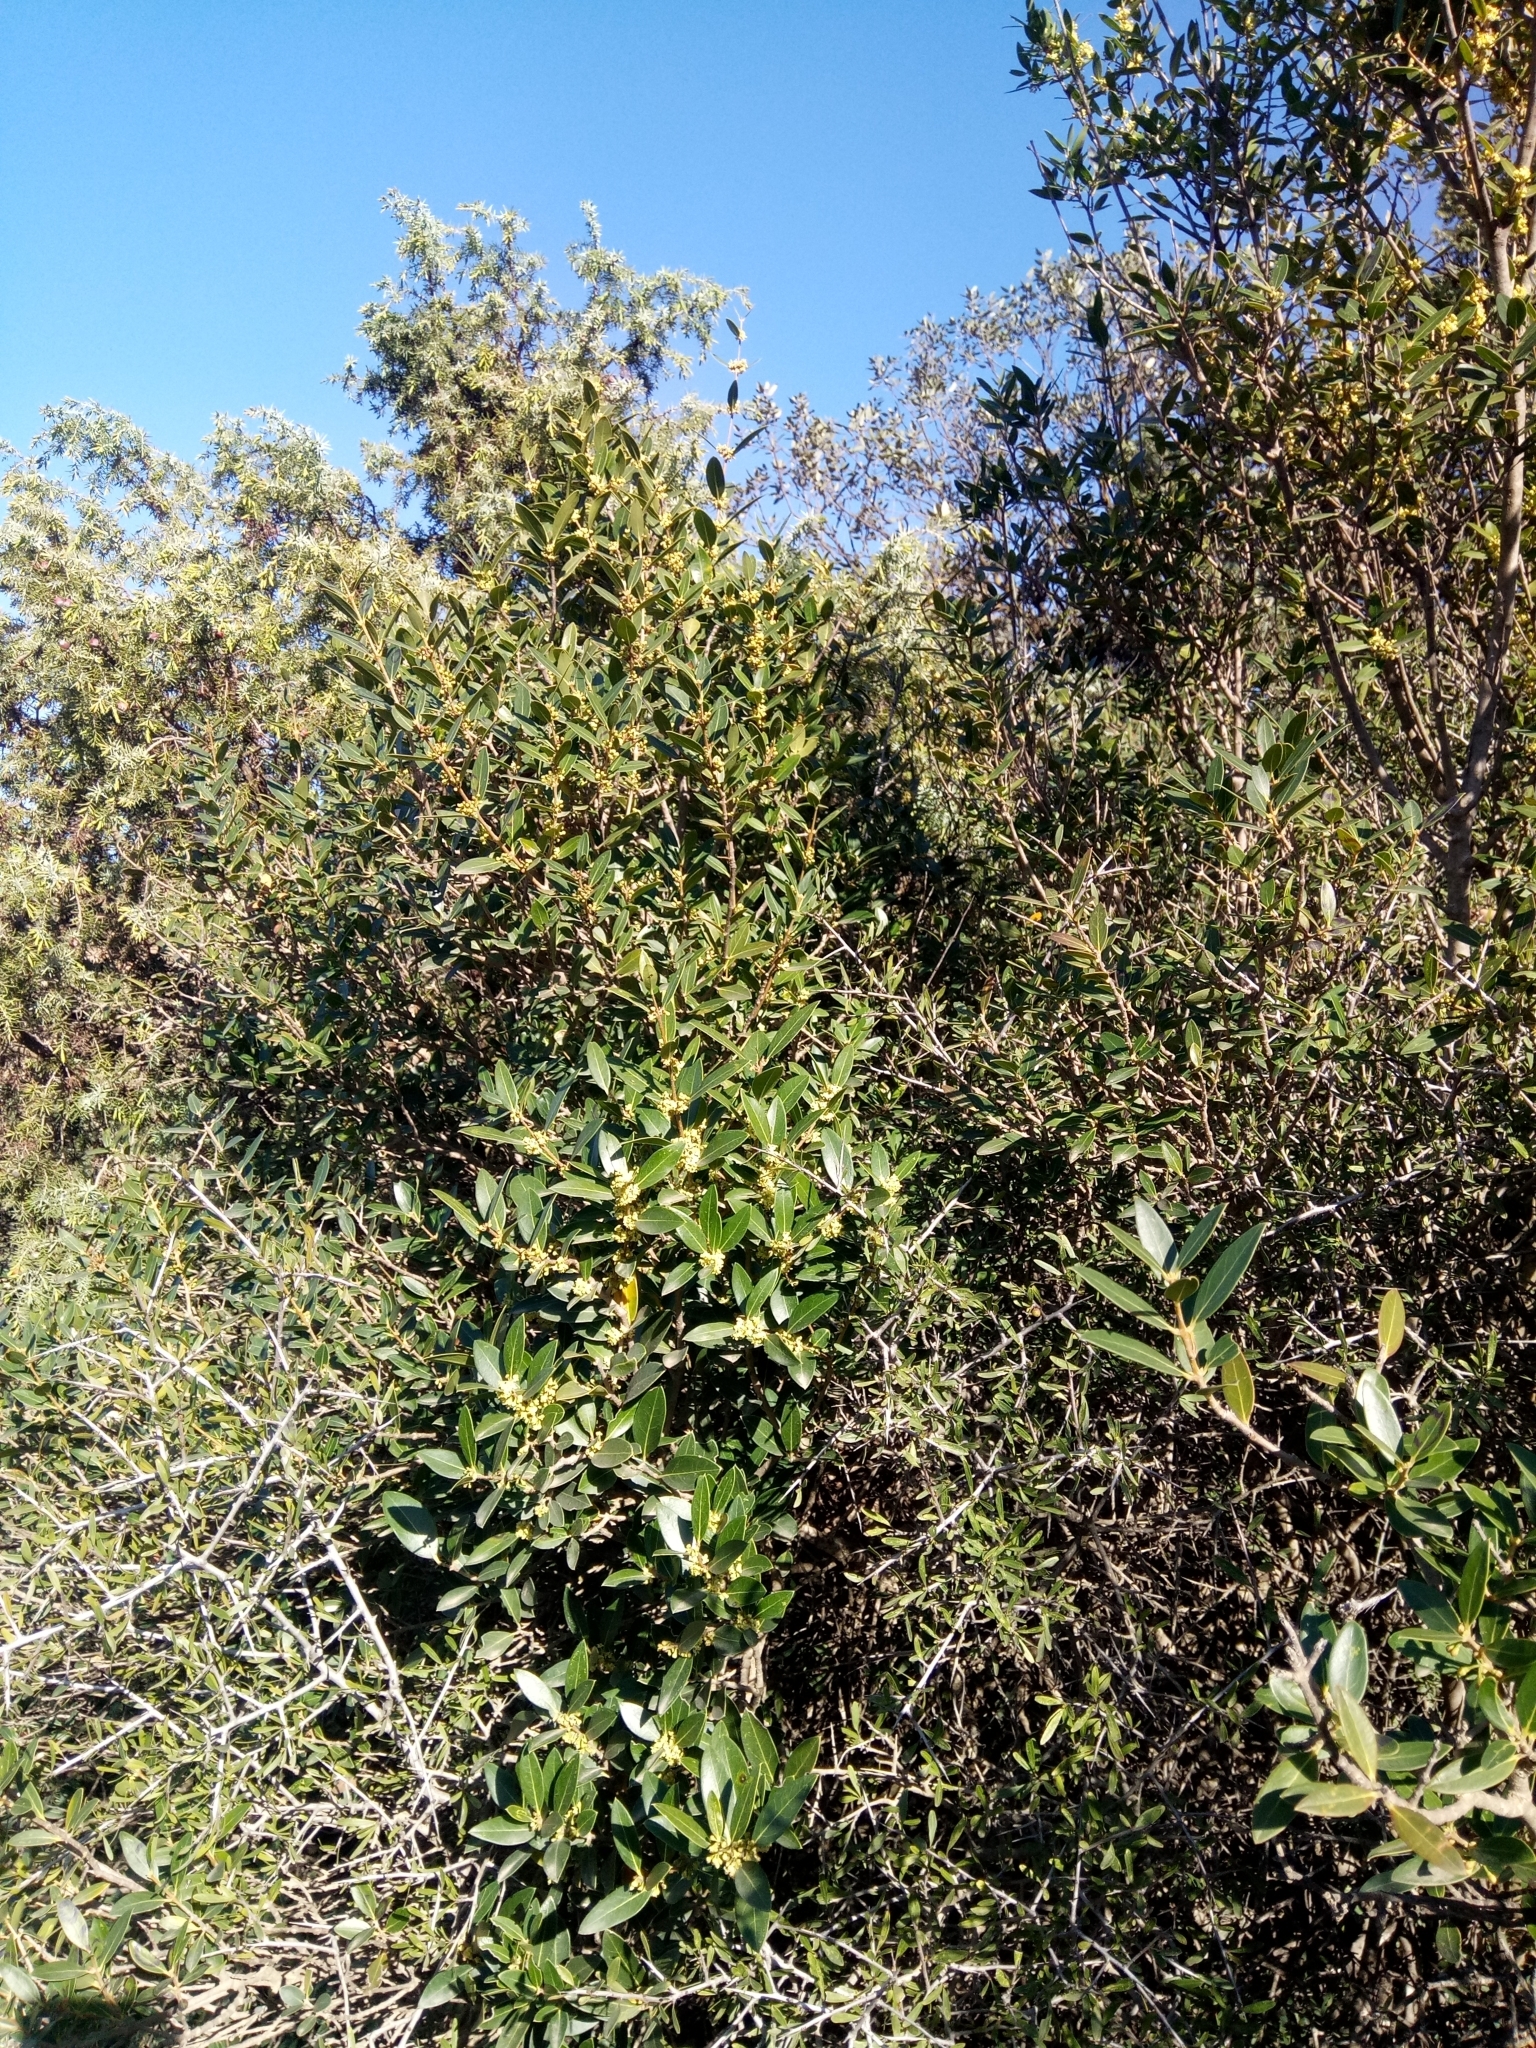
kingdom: Plantae
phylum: Tracheophyta
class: Magnoliopsida
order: Lamiales
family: Oleaceae
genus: Phillyrea
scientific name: Phillyrea latifolia
